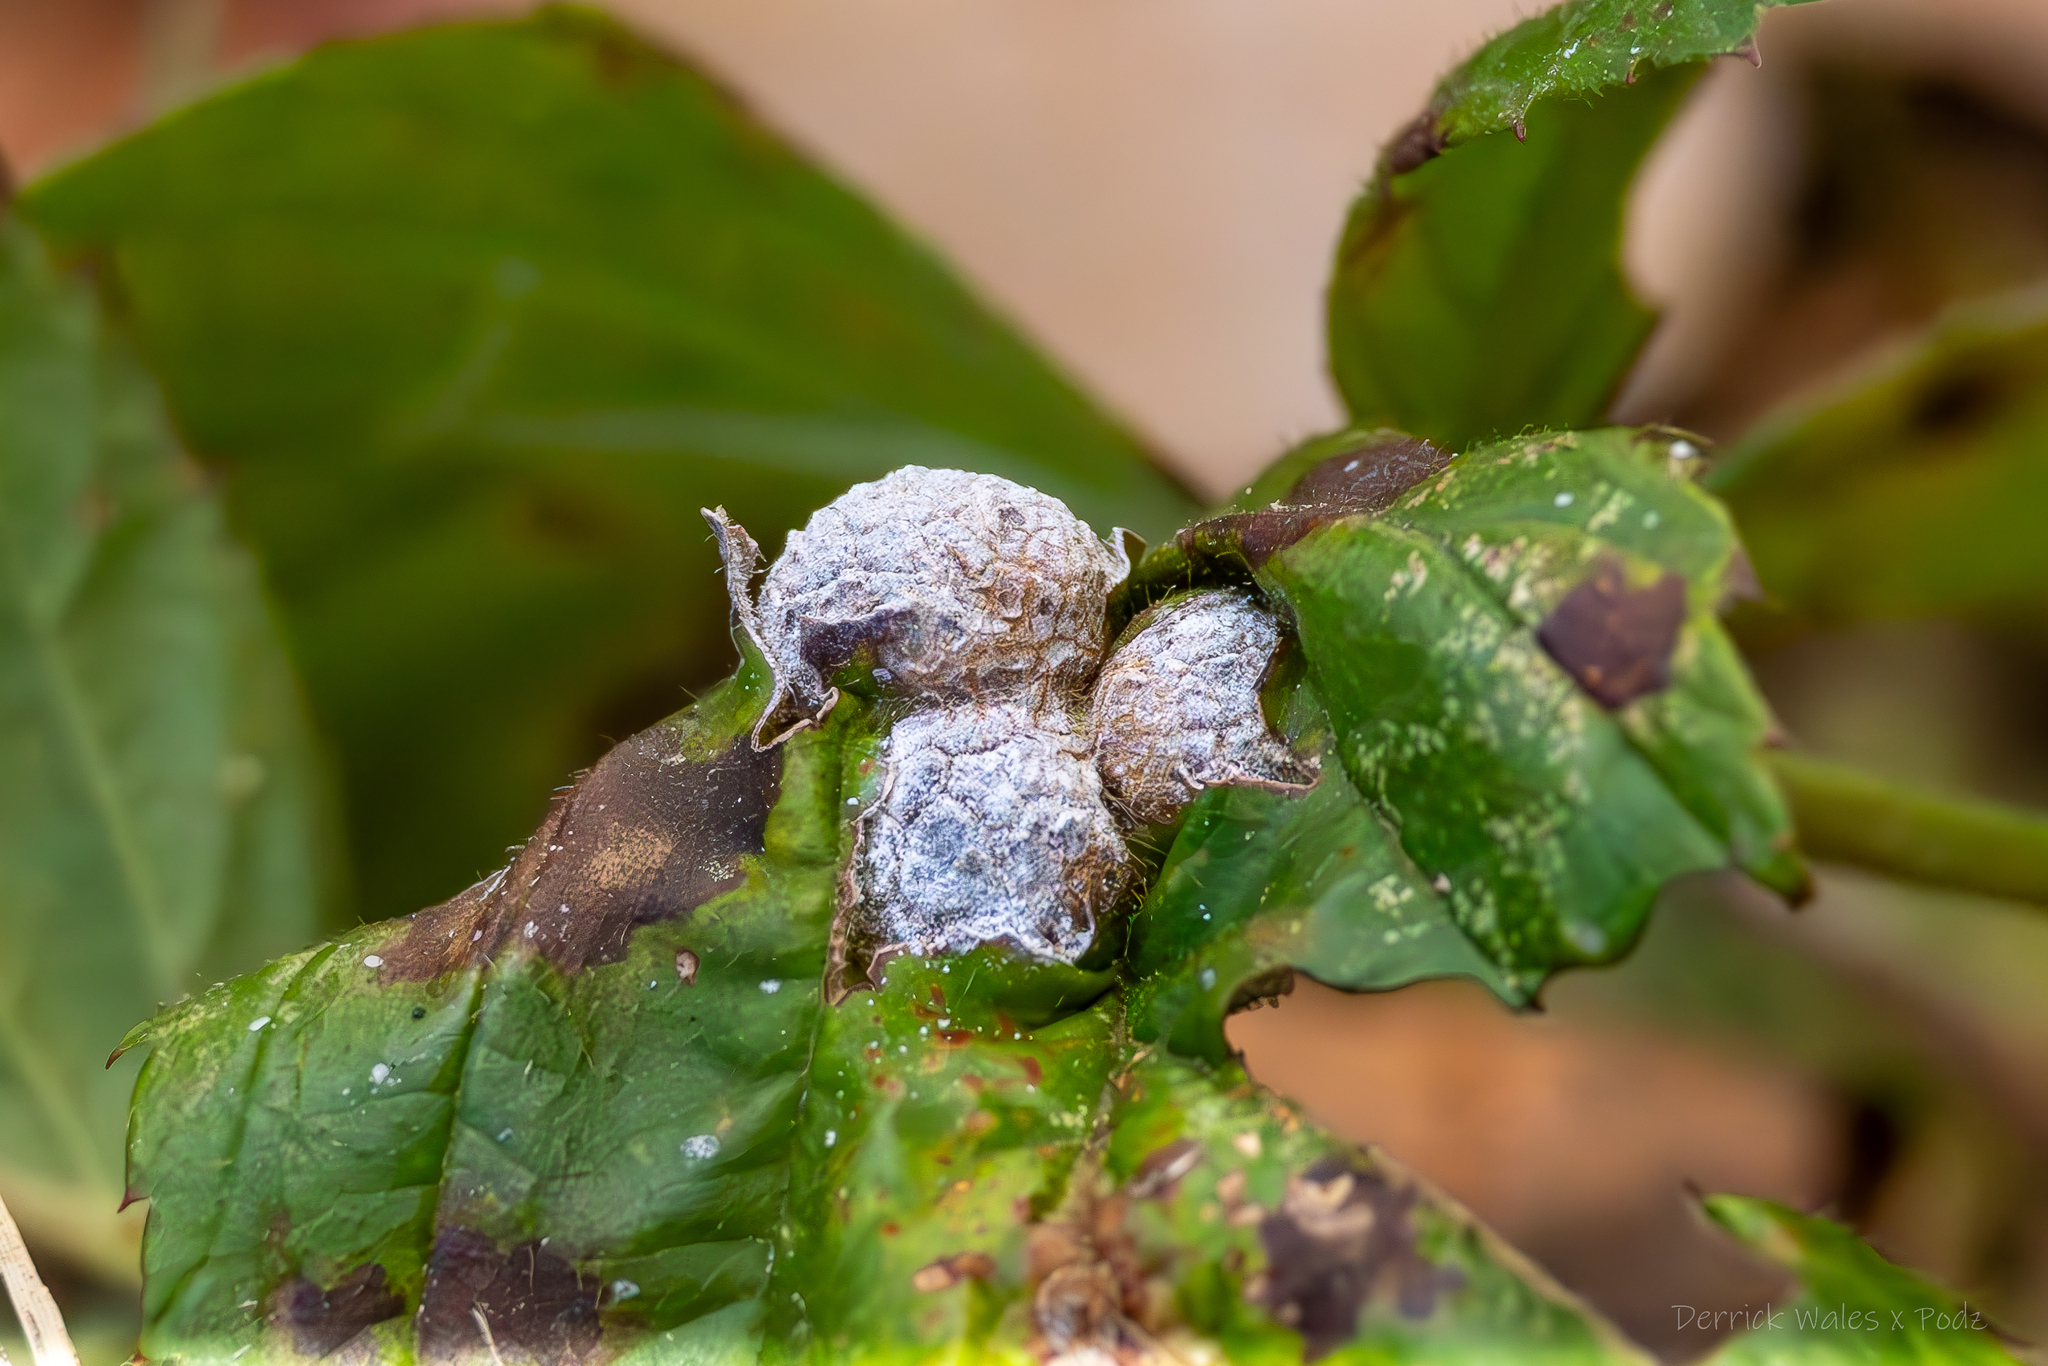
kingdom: Animalia
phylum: Arthropoda
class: Insecta
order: Diptera
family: Cecidomyiidae
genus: Neolasioptera
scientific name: Neolasioptera farinosa
